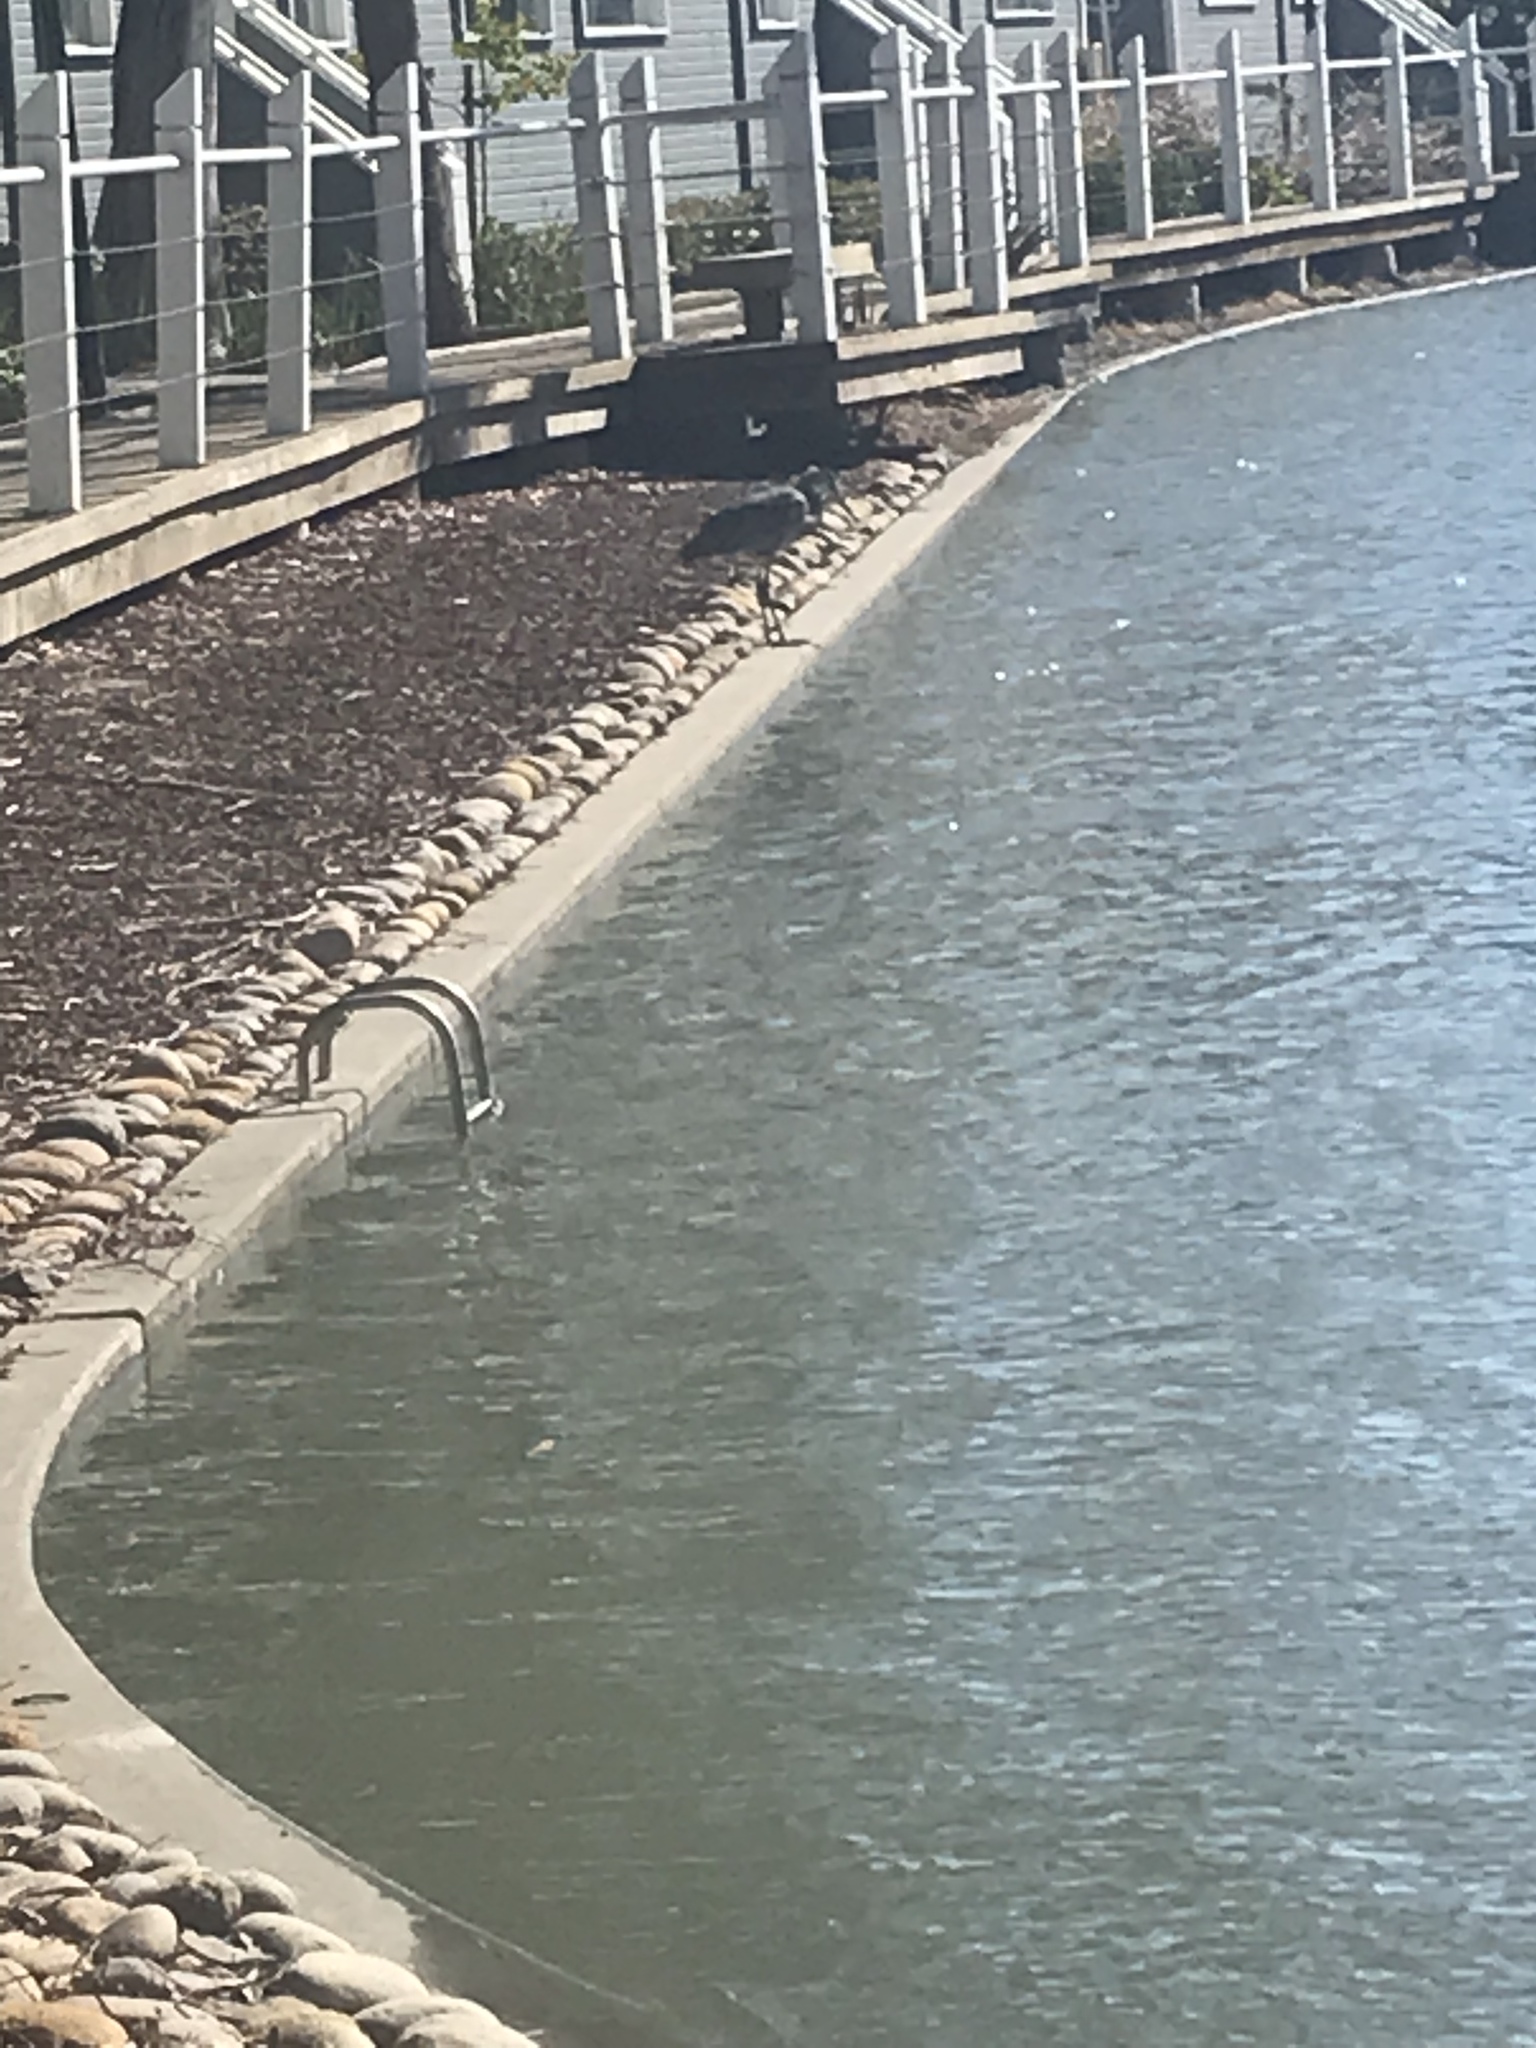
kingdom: Animalia
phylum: Chordata
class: Aves
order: Pelecaniformes
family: Ardeidae
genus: Ardea
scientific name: Ardea herodias
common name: Great blue heron
